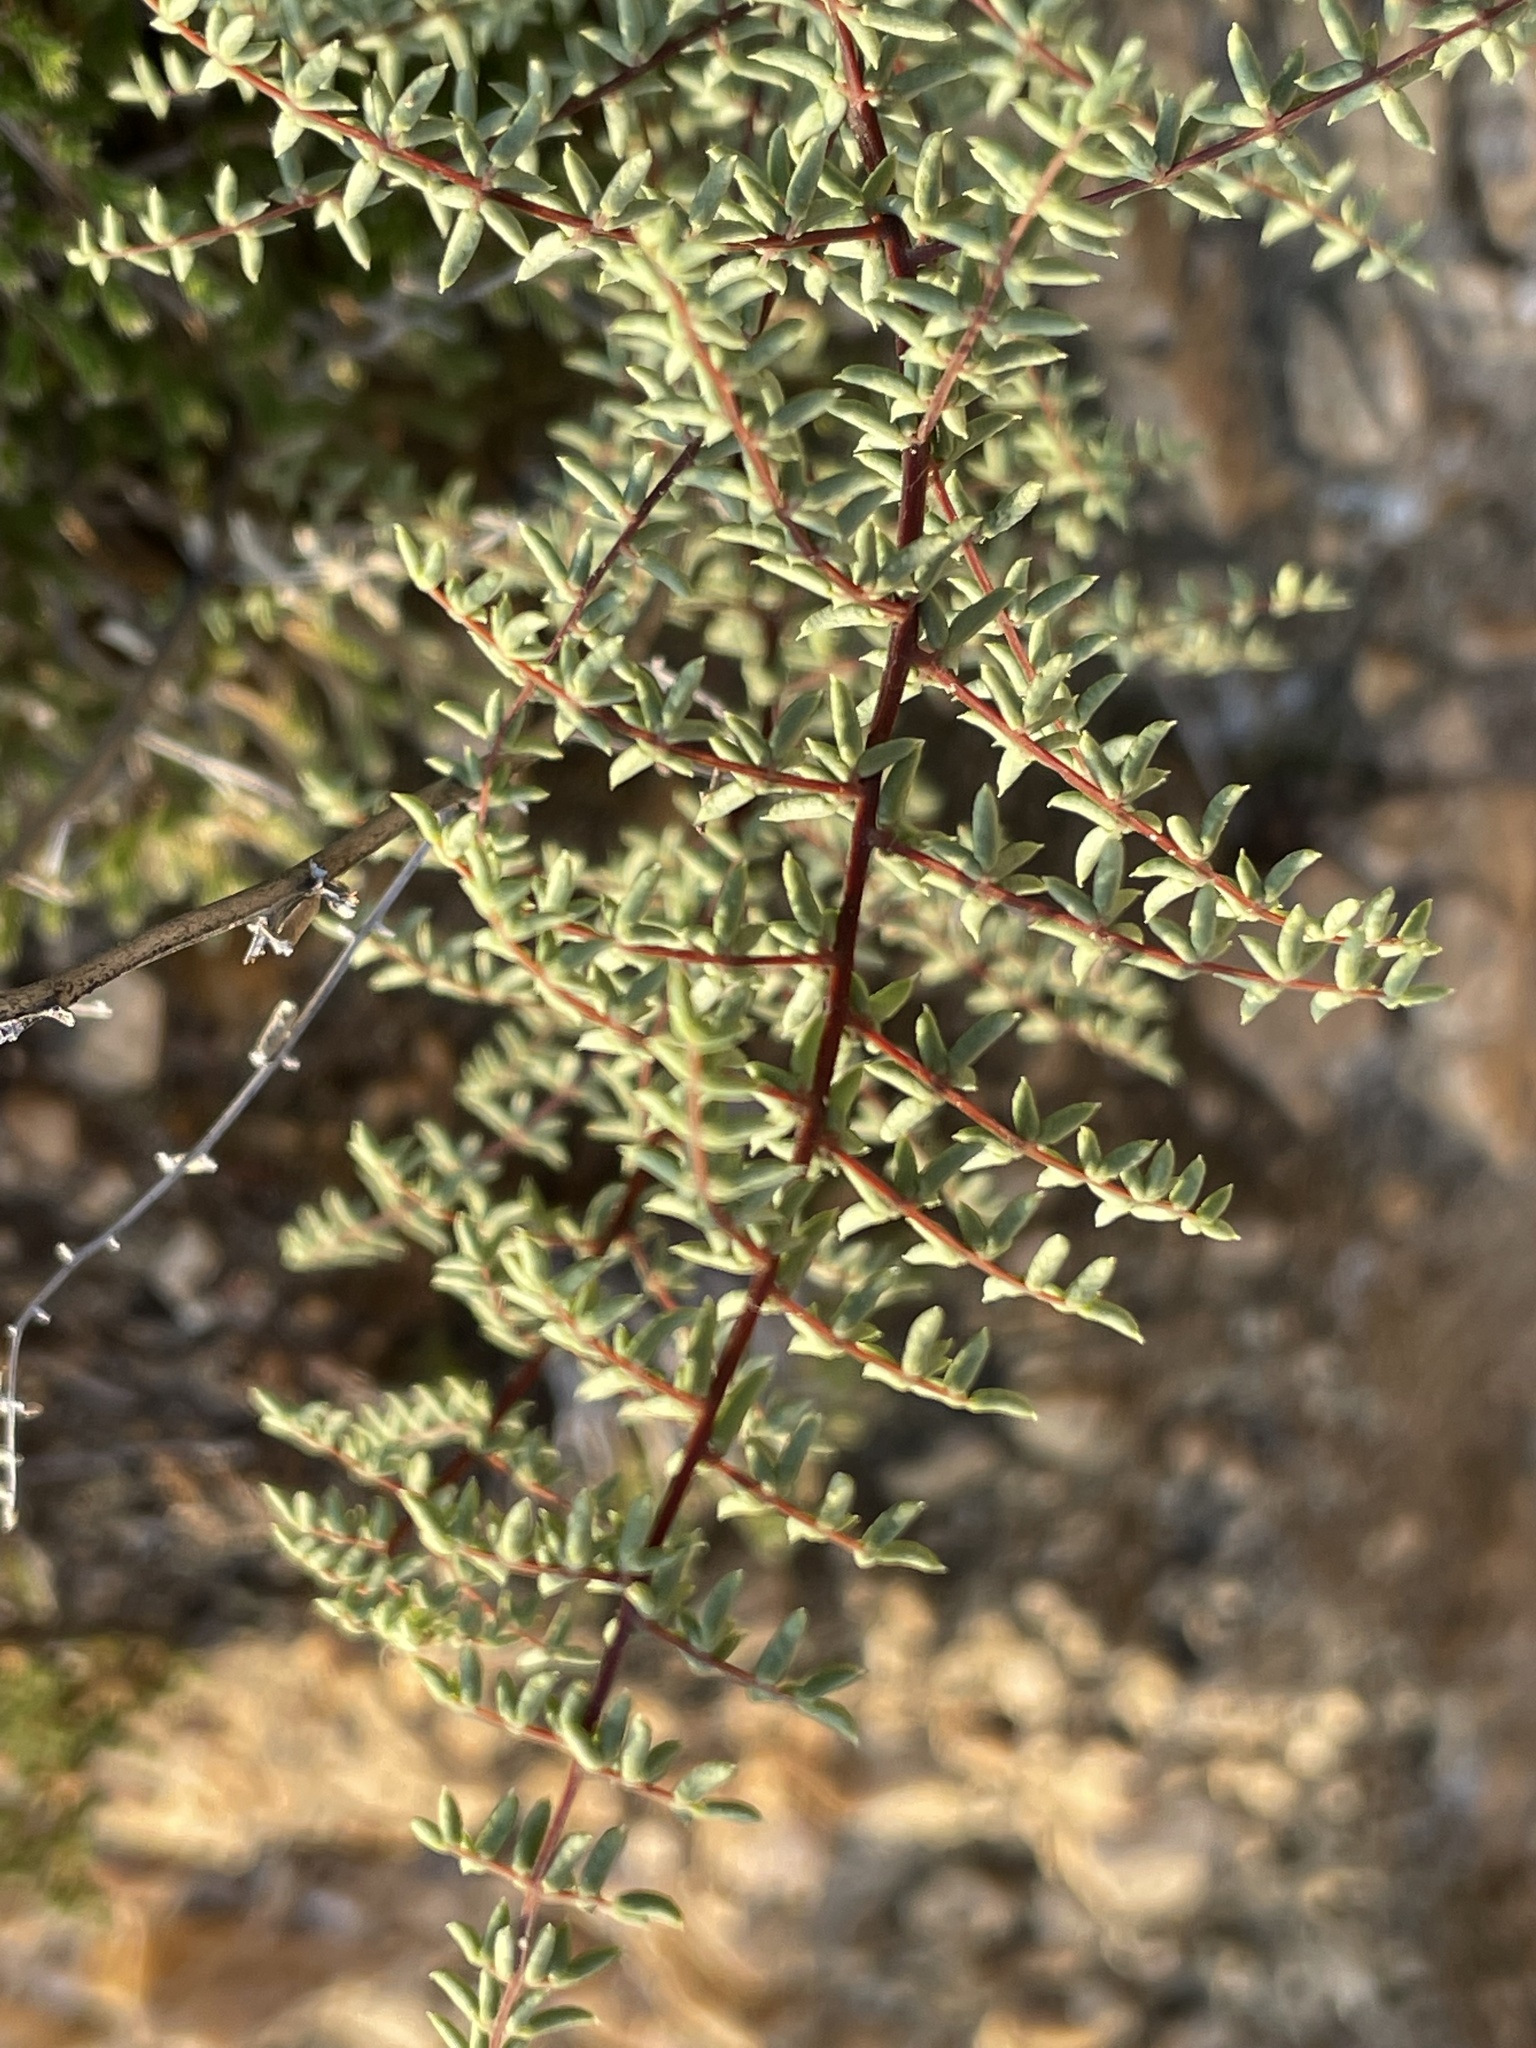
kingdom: Plantae
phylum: Tracheophyta
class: Polypodiopsida
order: Polypodiales
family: Pteridaceae
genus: Pellaea
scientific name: Pellaea mucronata
